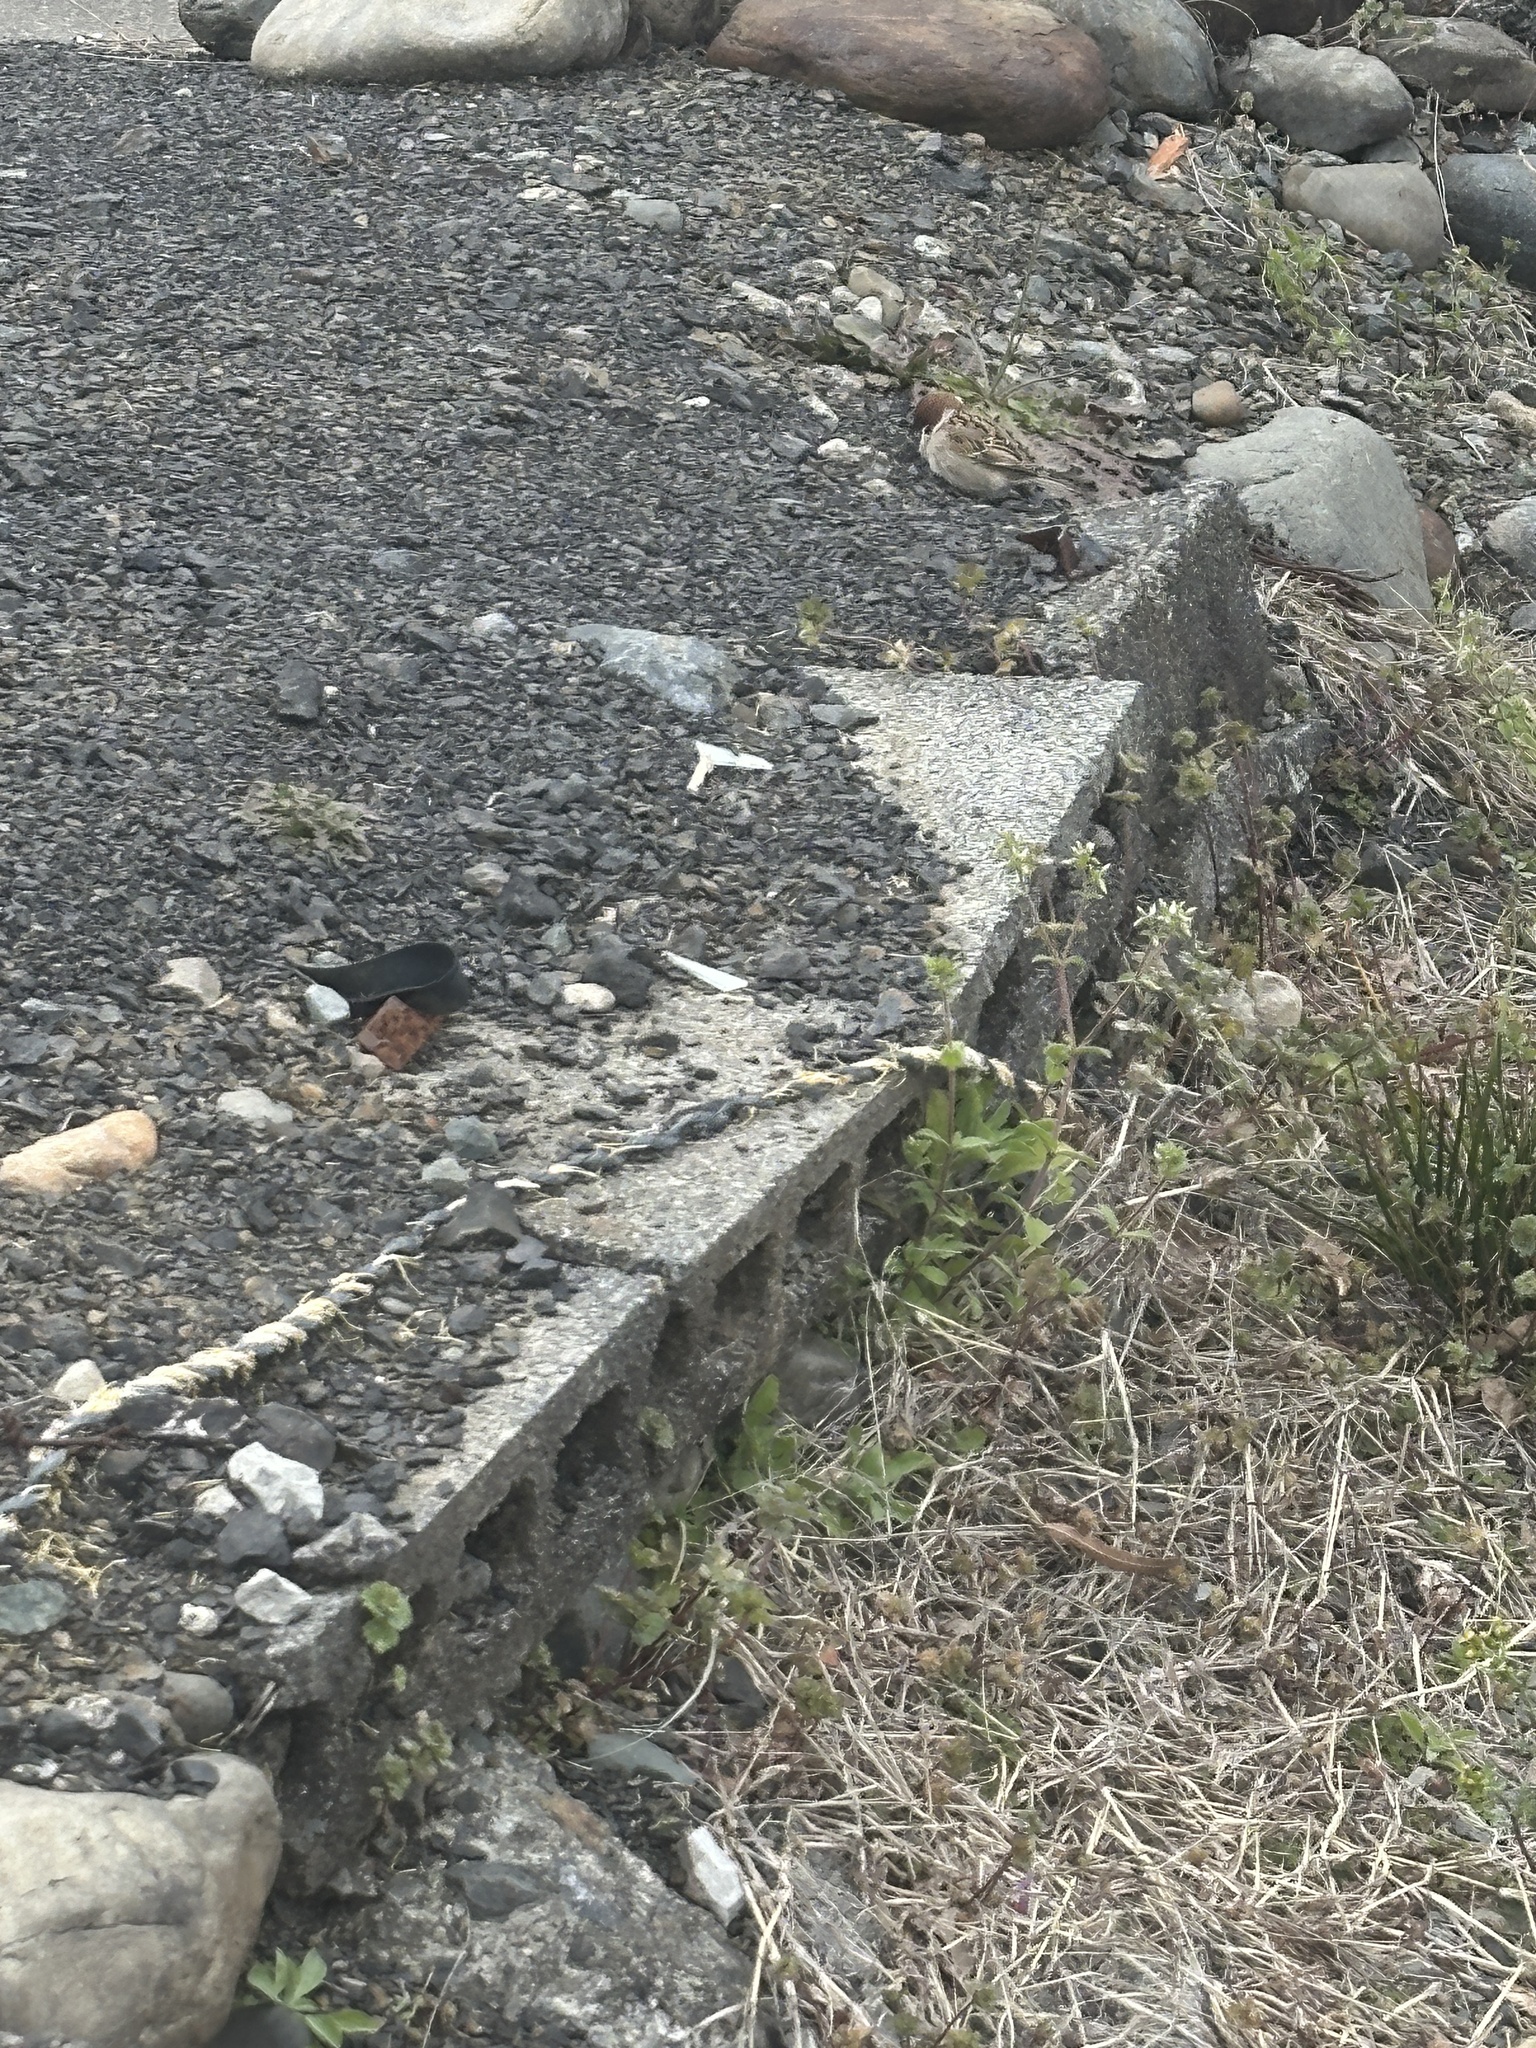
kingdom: Animalia
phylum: Chordata
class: Aves
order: Passeriformes
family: Passeridae
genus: Passer
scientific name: Passer montanus
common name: Eurasian tree sparrow
